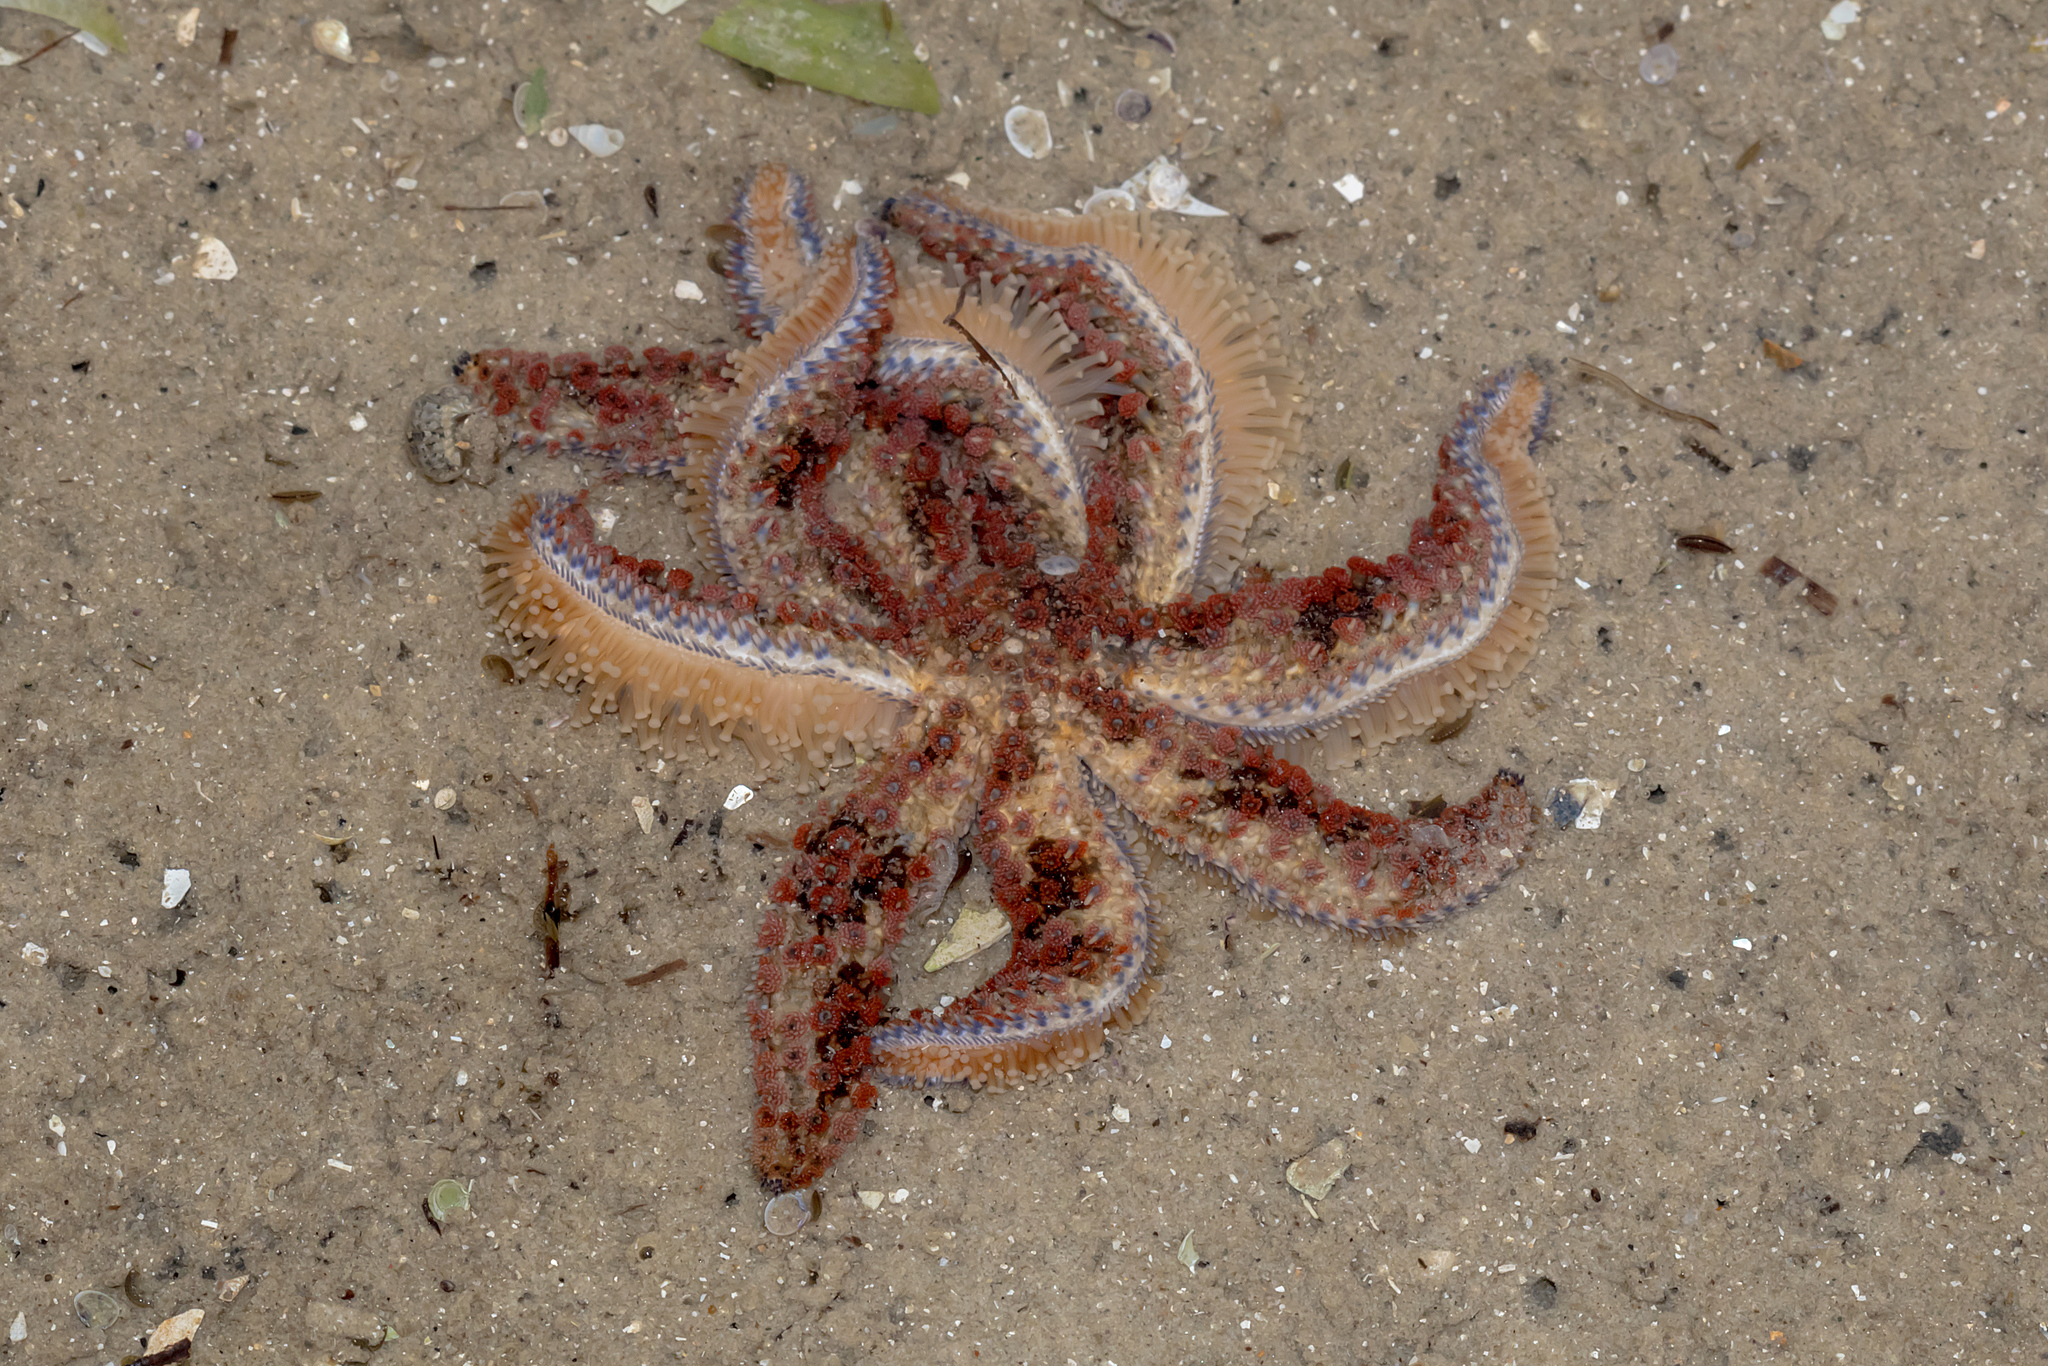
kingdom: Animalia
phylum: Echinodermata
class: Asteroidea
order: Forcipulatida
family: Asteriidae
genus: Coscinasterias
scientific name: Coscinasterias muricata
